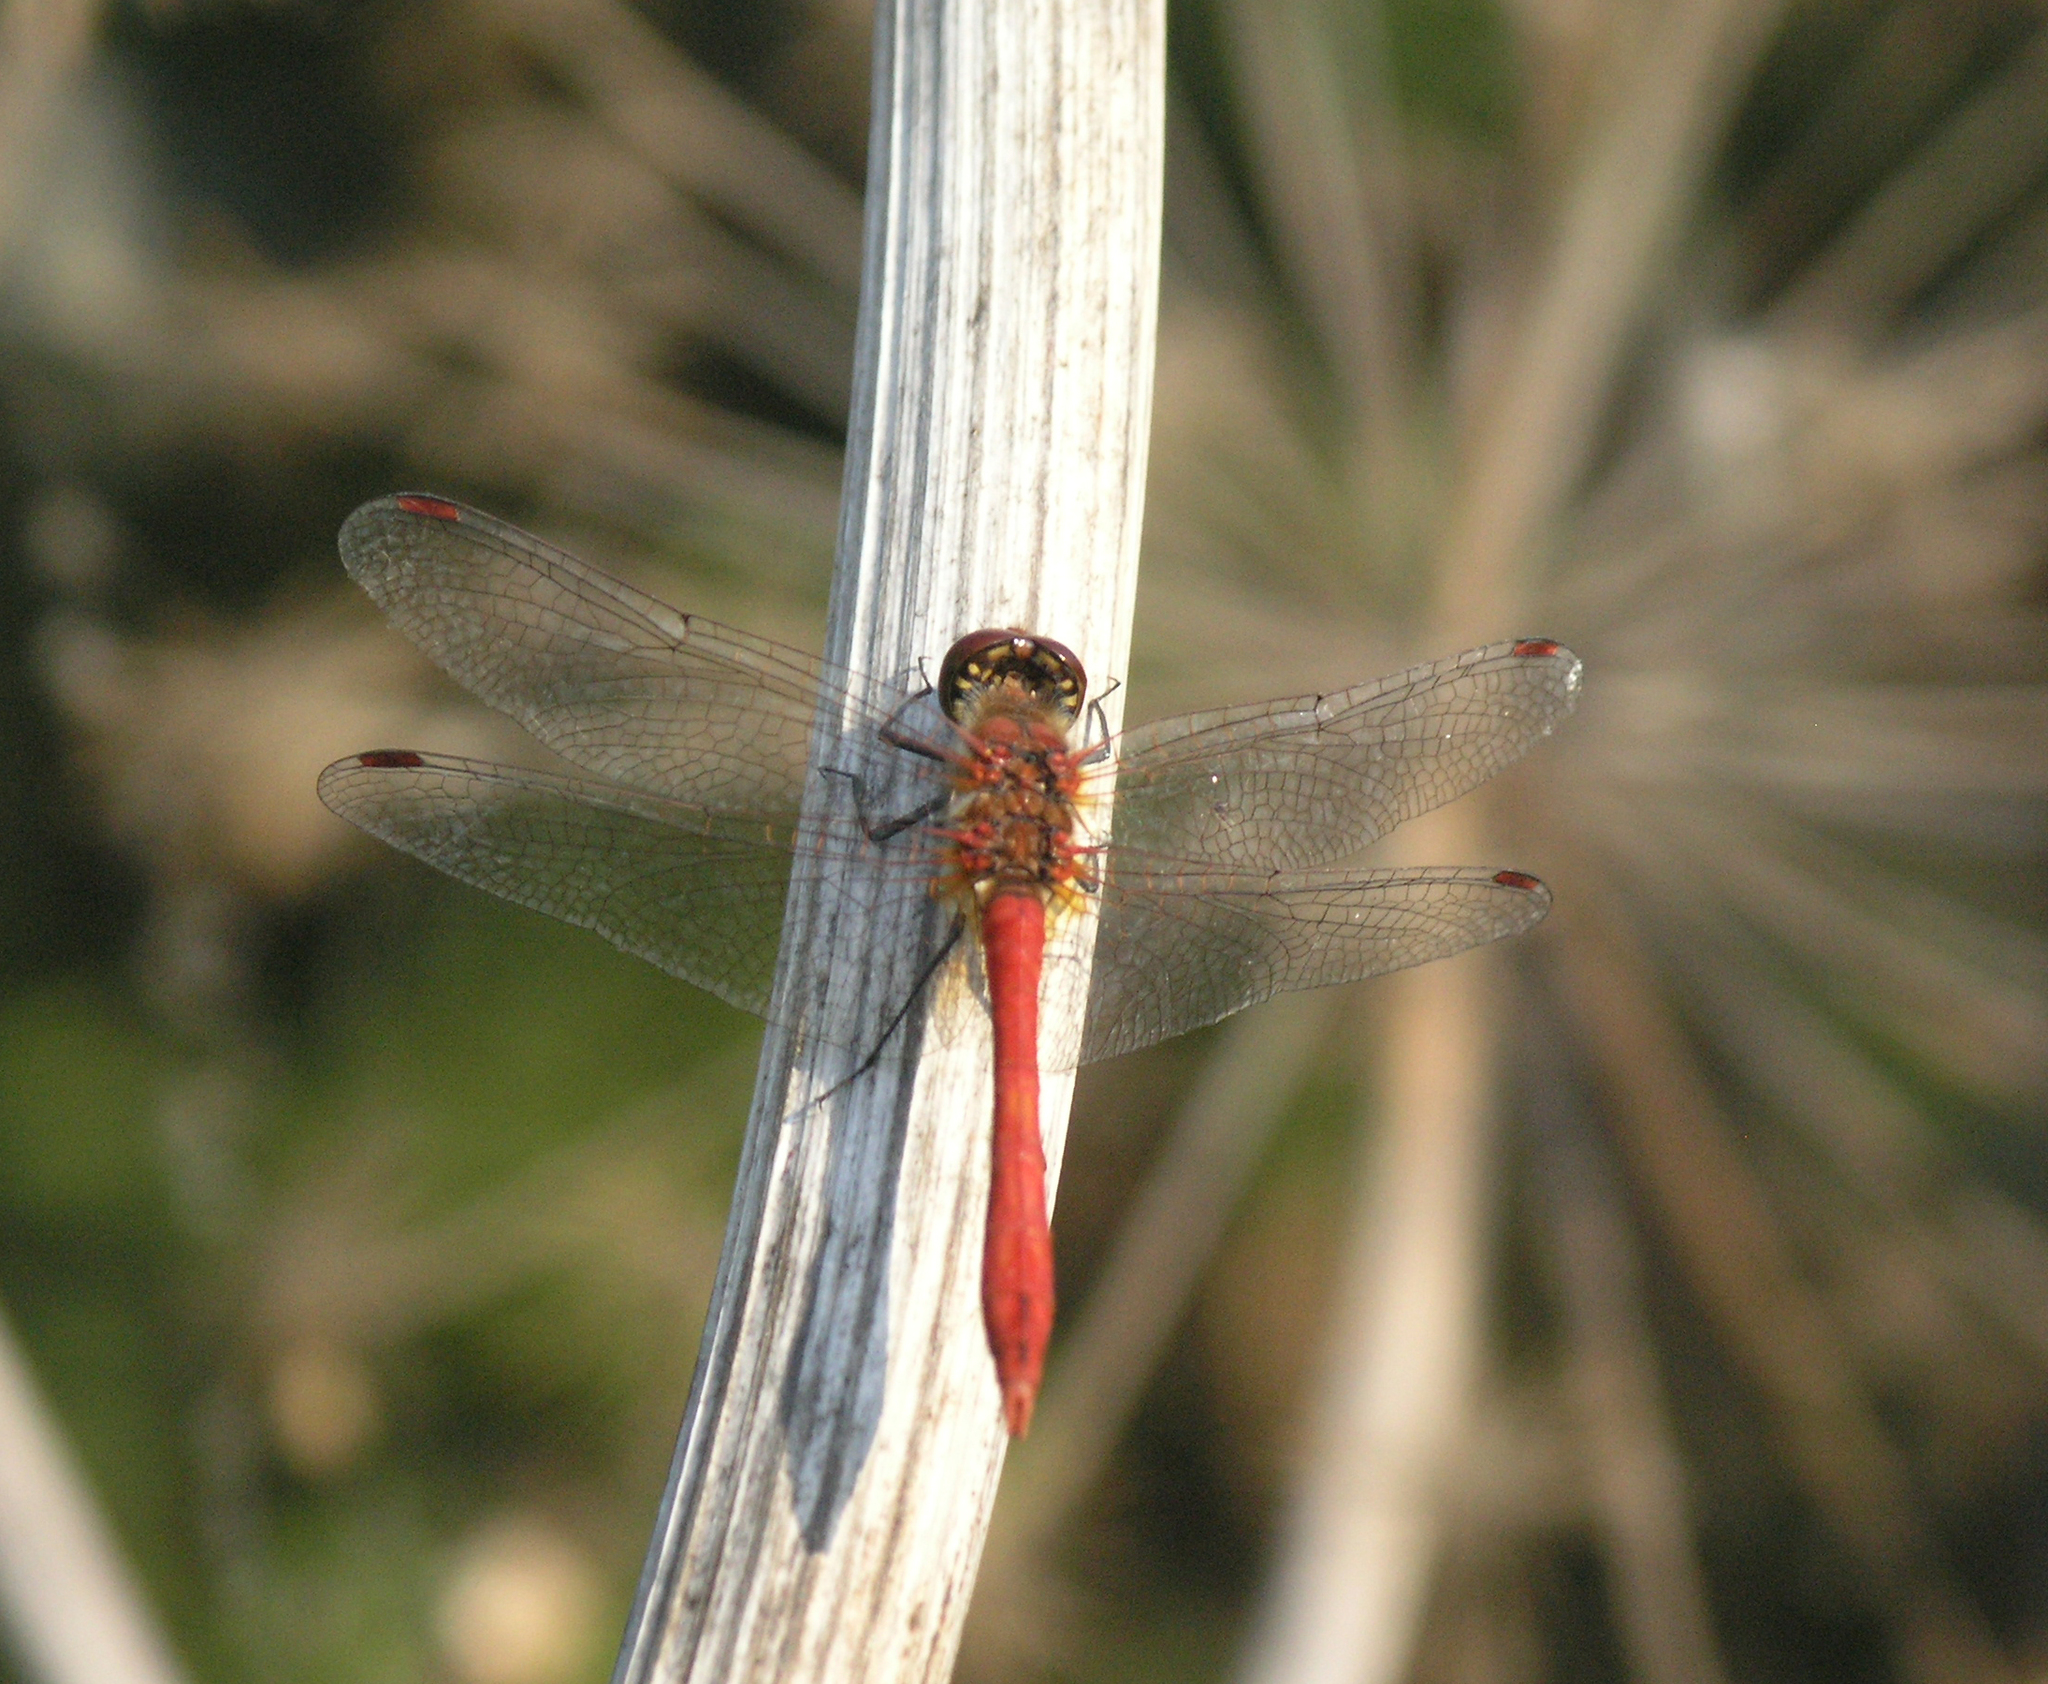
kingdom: Animalia
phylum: Arthropoda
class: Insecta
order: Odonata
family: Libellulidae
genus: Sympetrum
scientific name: Sympetrum sanguineum
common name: Ruddy darter
